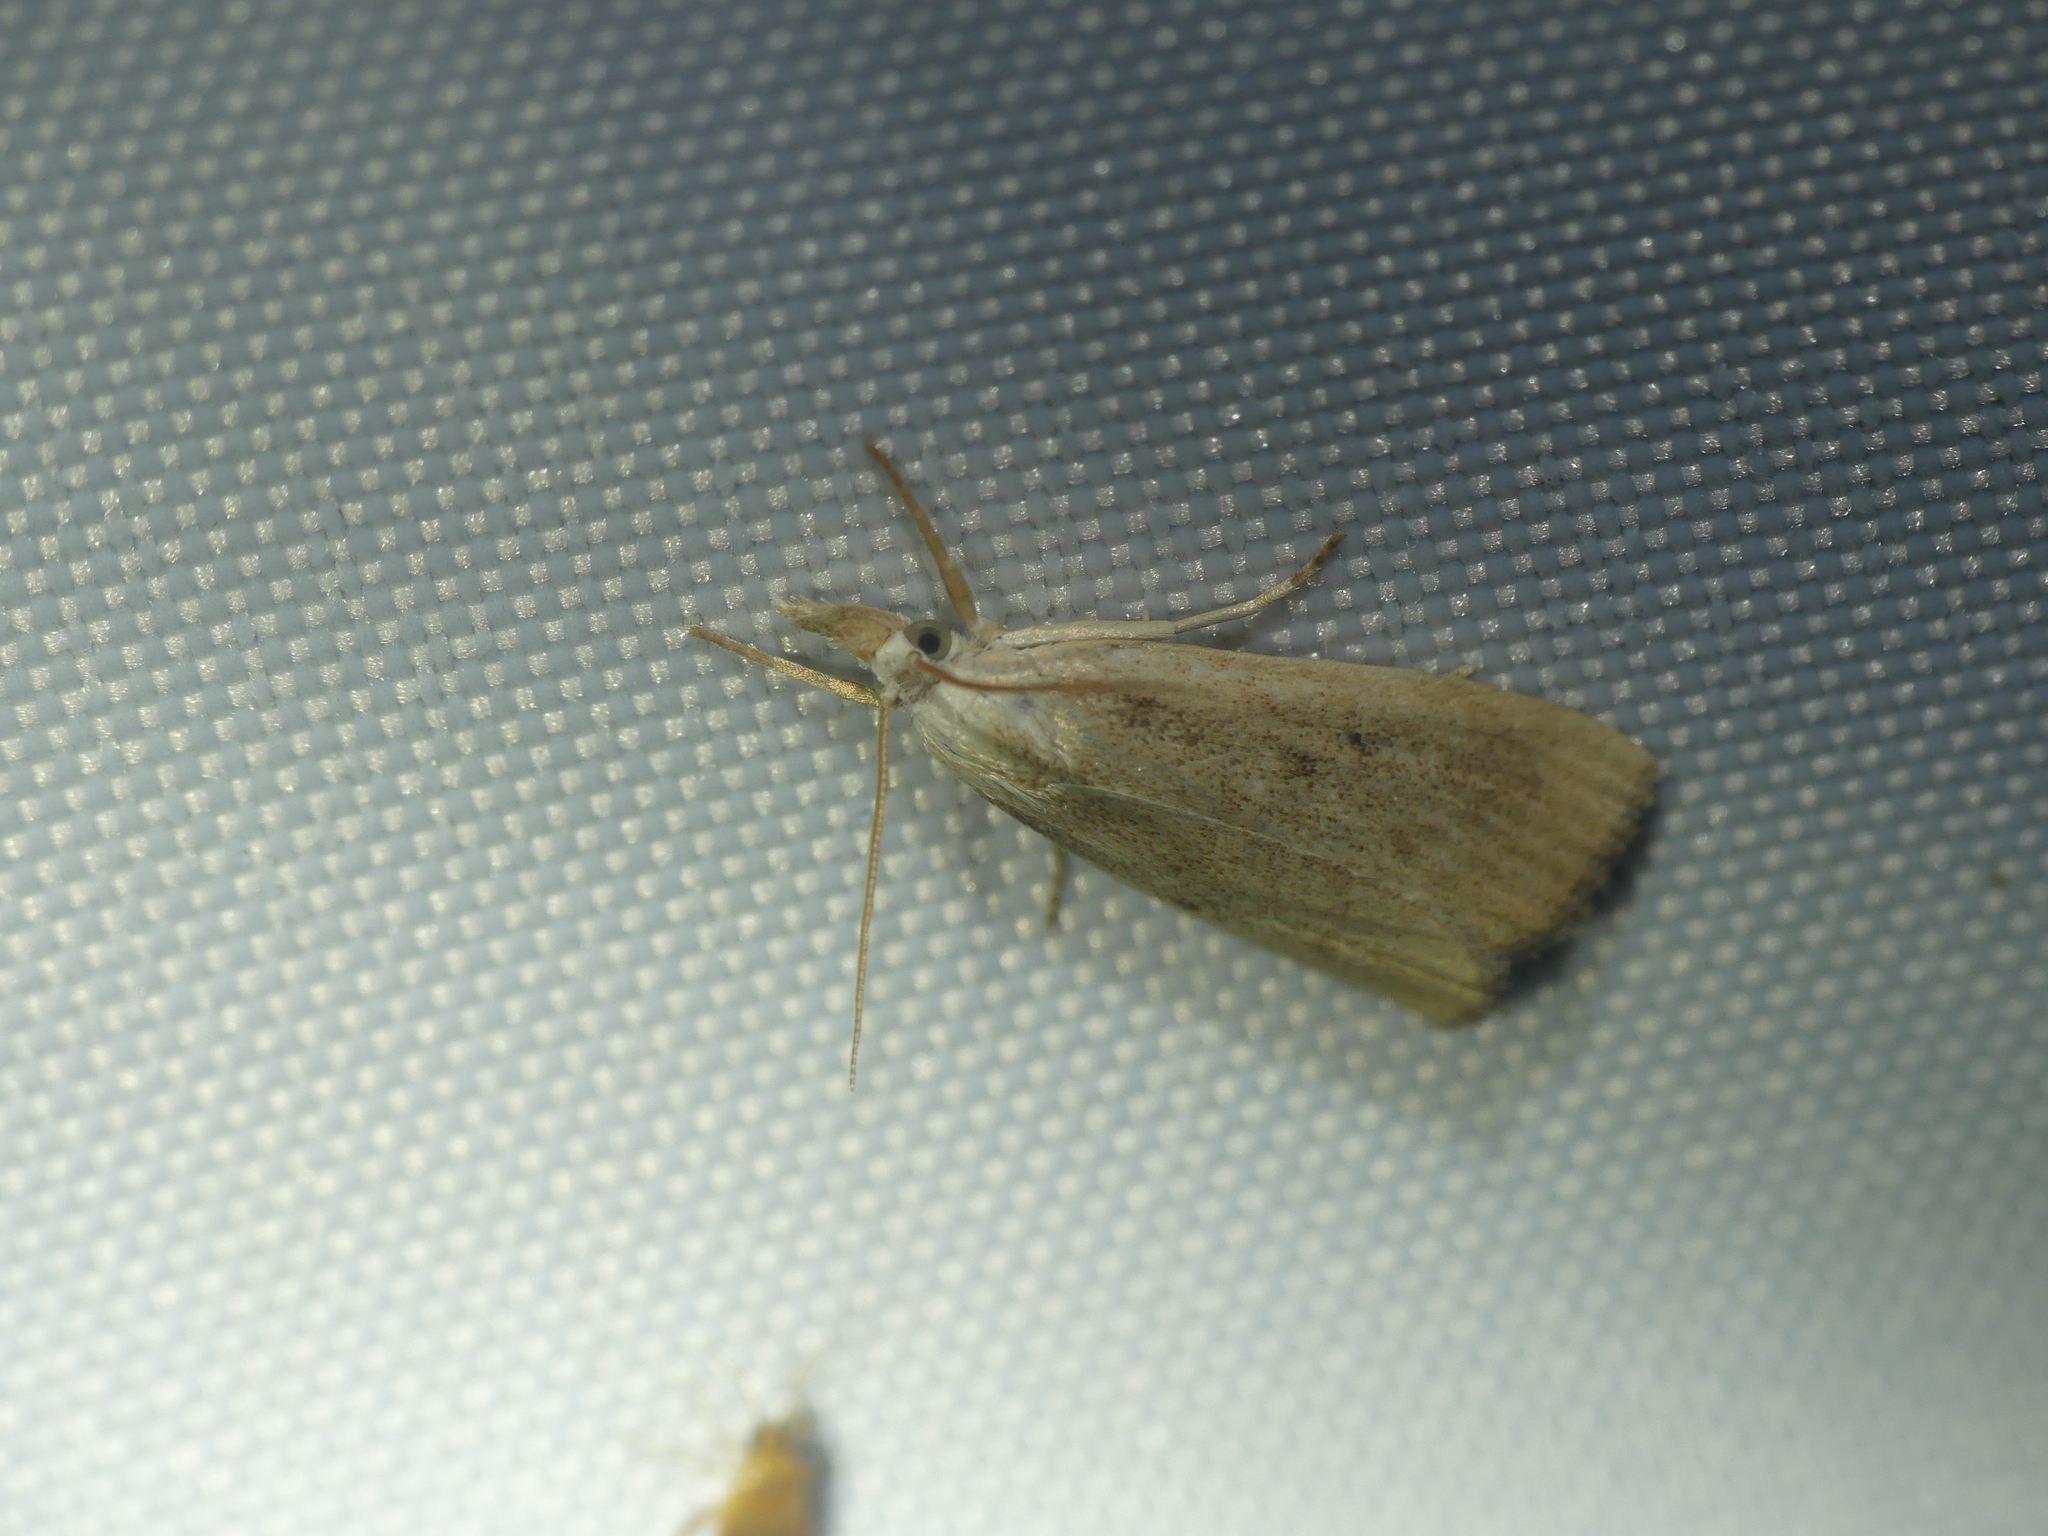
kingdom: Animalia
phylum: Arthropoda
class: Insecta
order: Lepidoptera
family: Crambidae
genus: Calamotropha
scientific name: Calamotropha paludella
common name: Bulrush veneer
